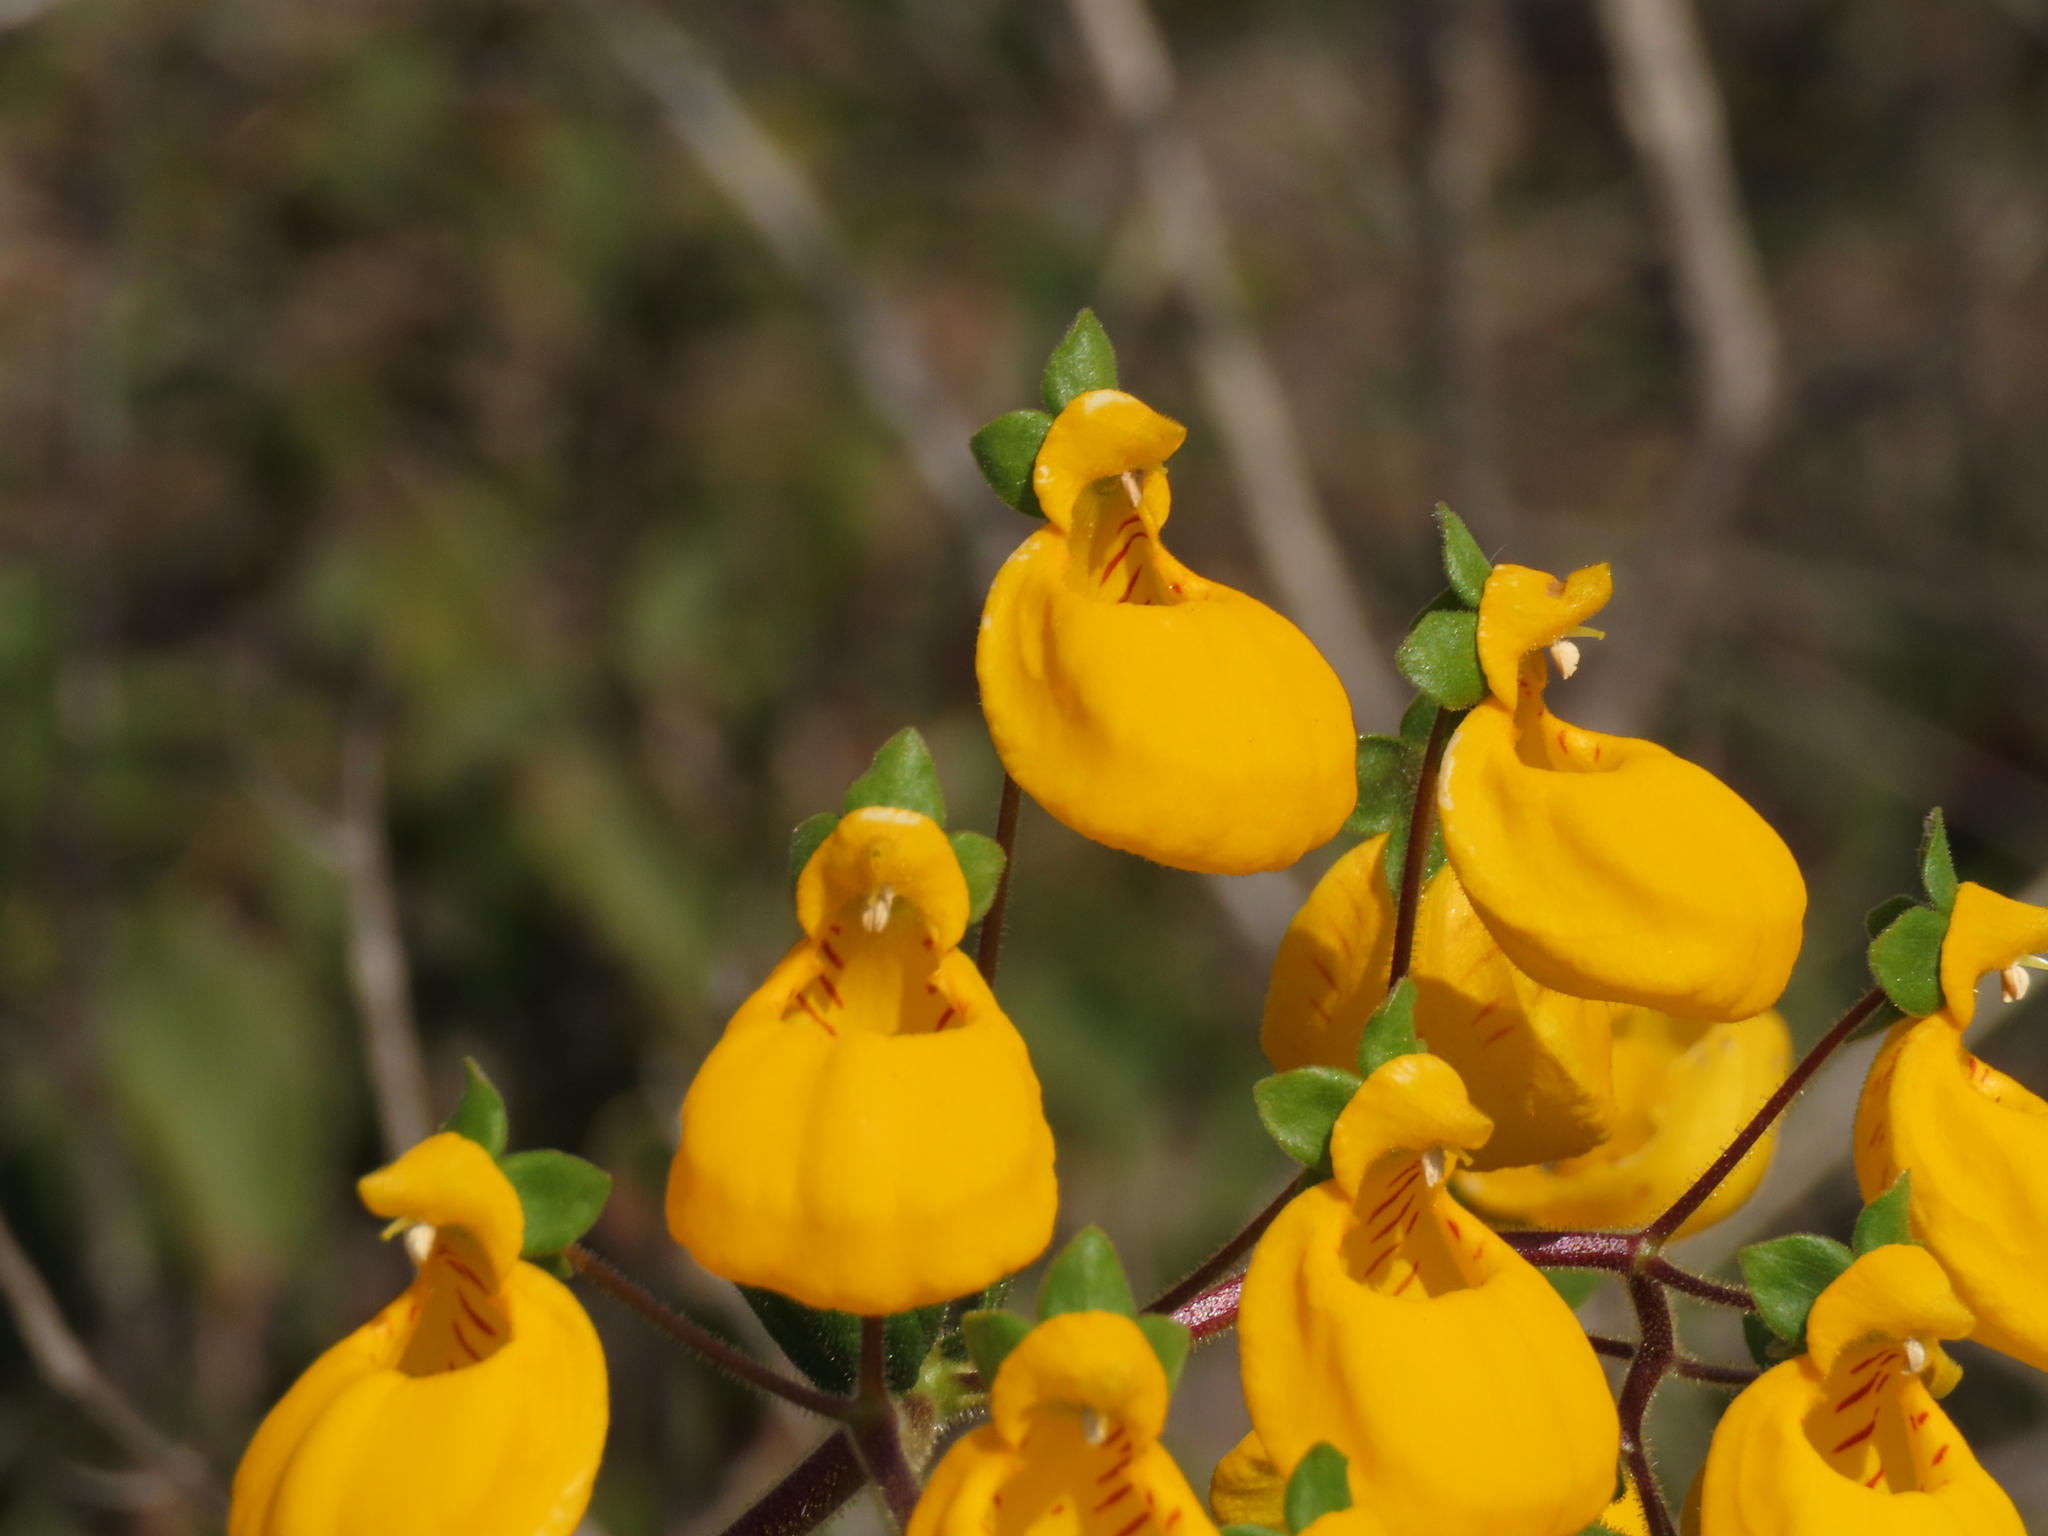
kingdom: Plantae
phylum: Tracheophyta
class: Magnoliopsida
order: Lamiales
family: Calceolariaceae
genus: Calceolaria
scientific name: Calceolaria corymbosa
